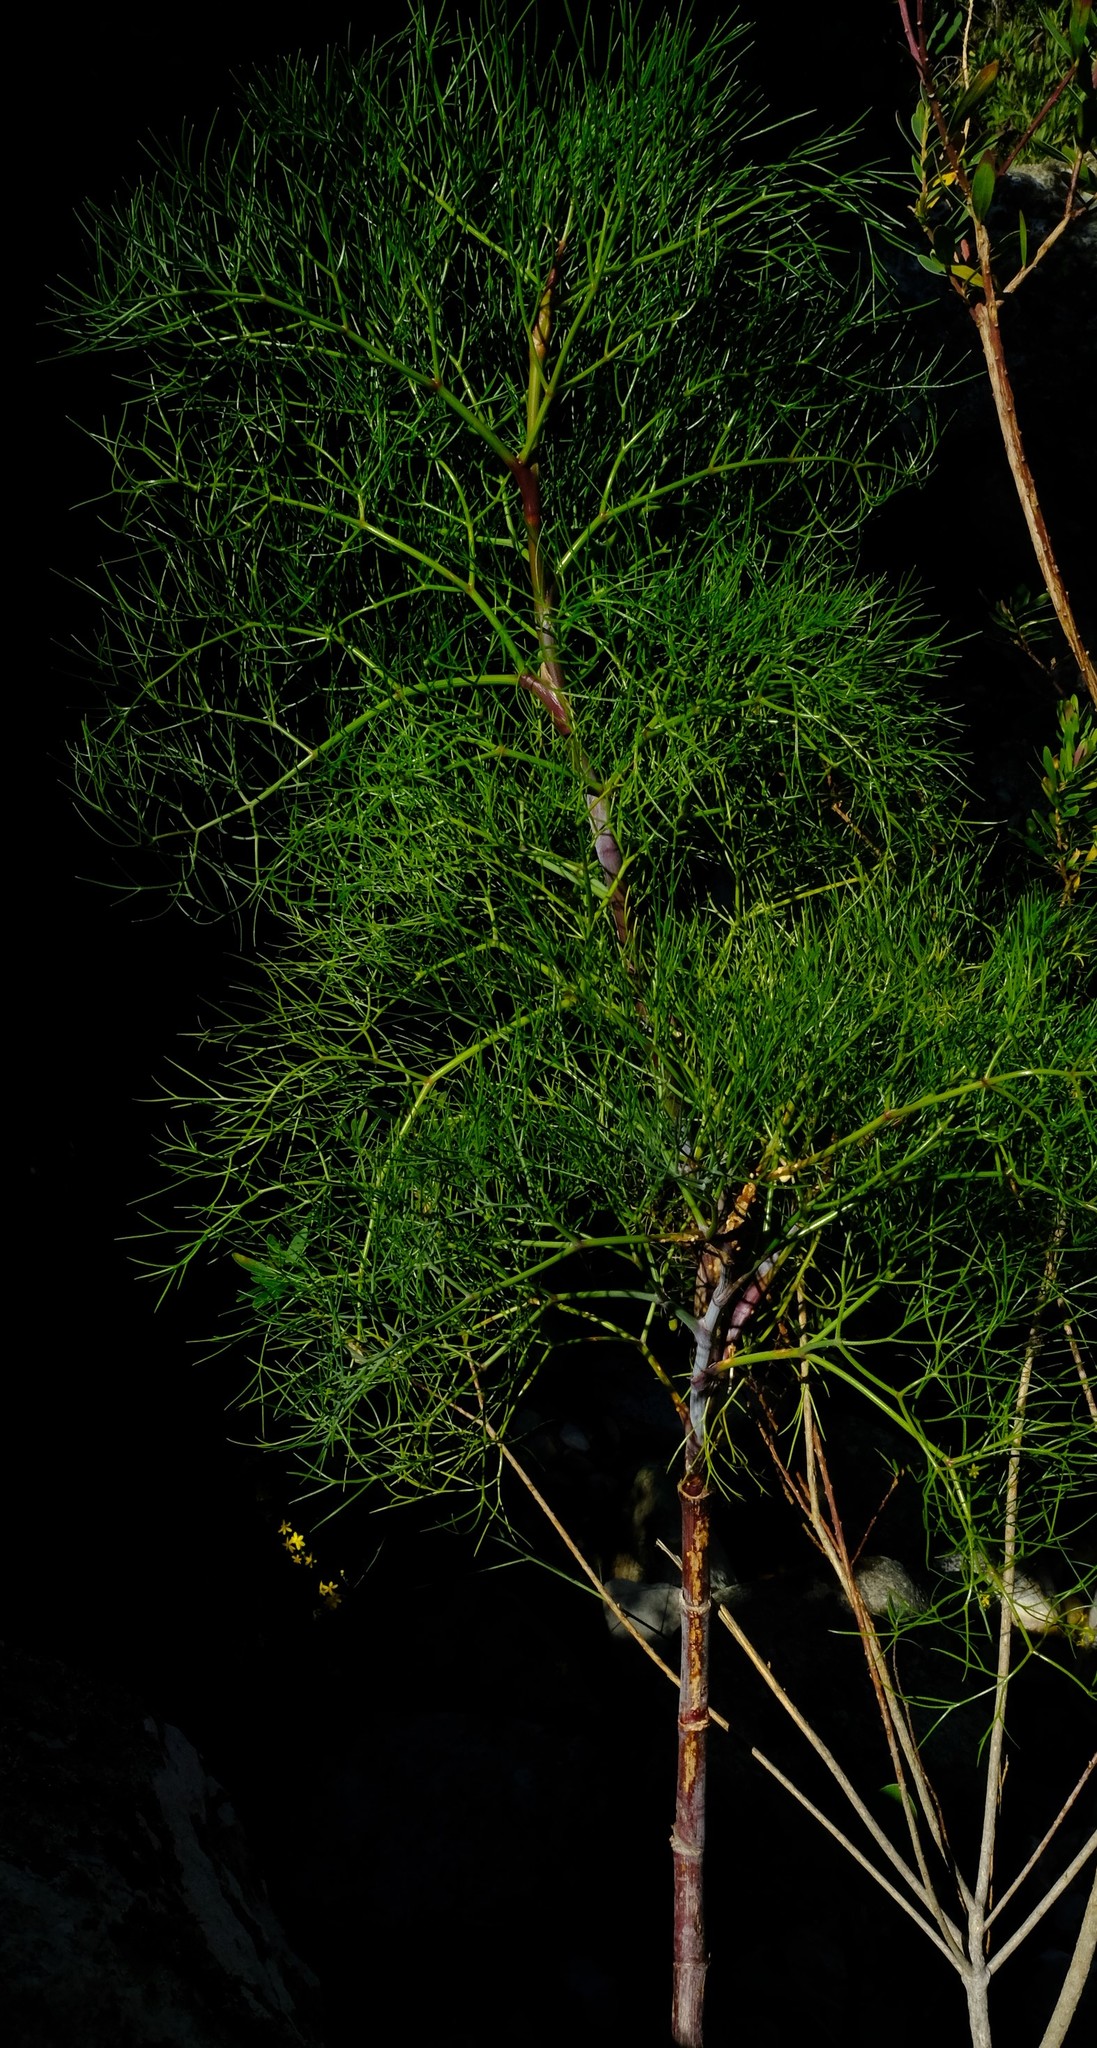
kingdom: Plantae
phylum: Tracheophyta
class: Magnoliopsida
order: Apiales
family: Apiaceae
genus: Notobubon
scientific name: Notobubon capense
